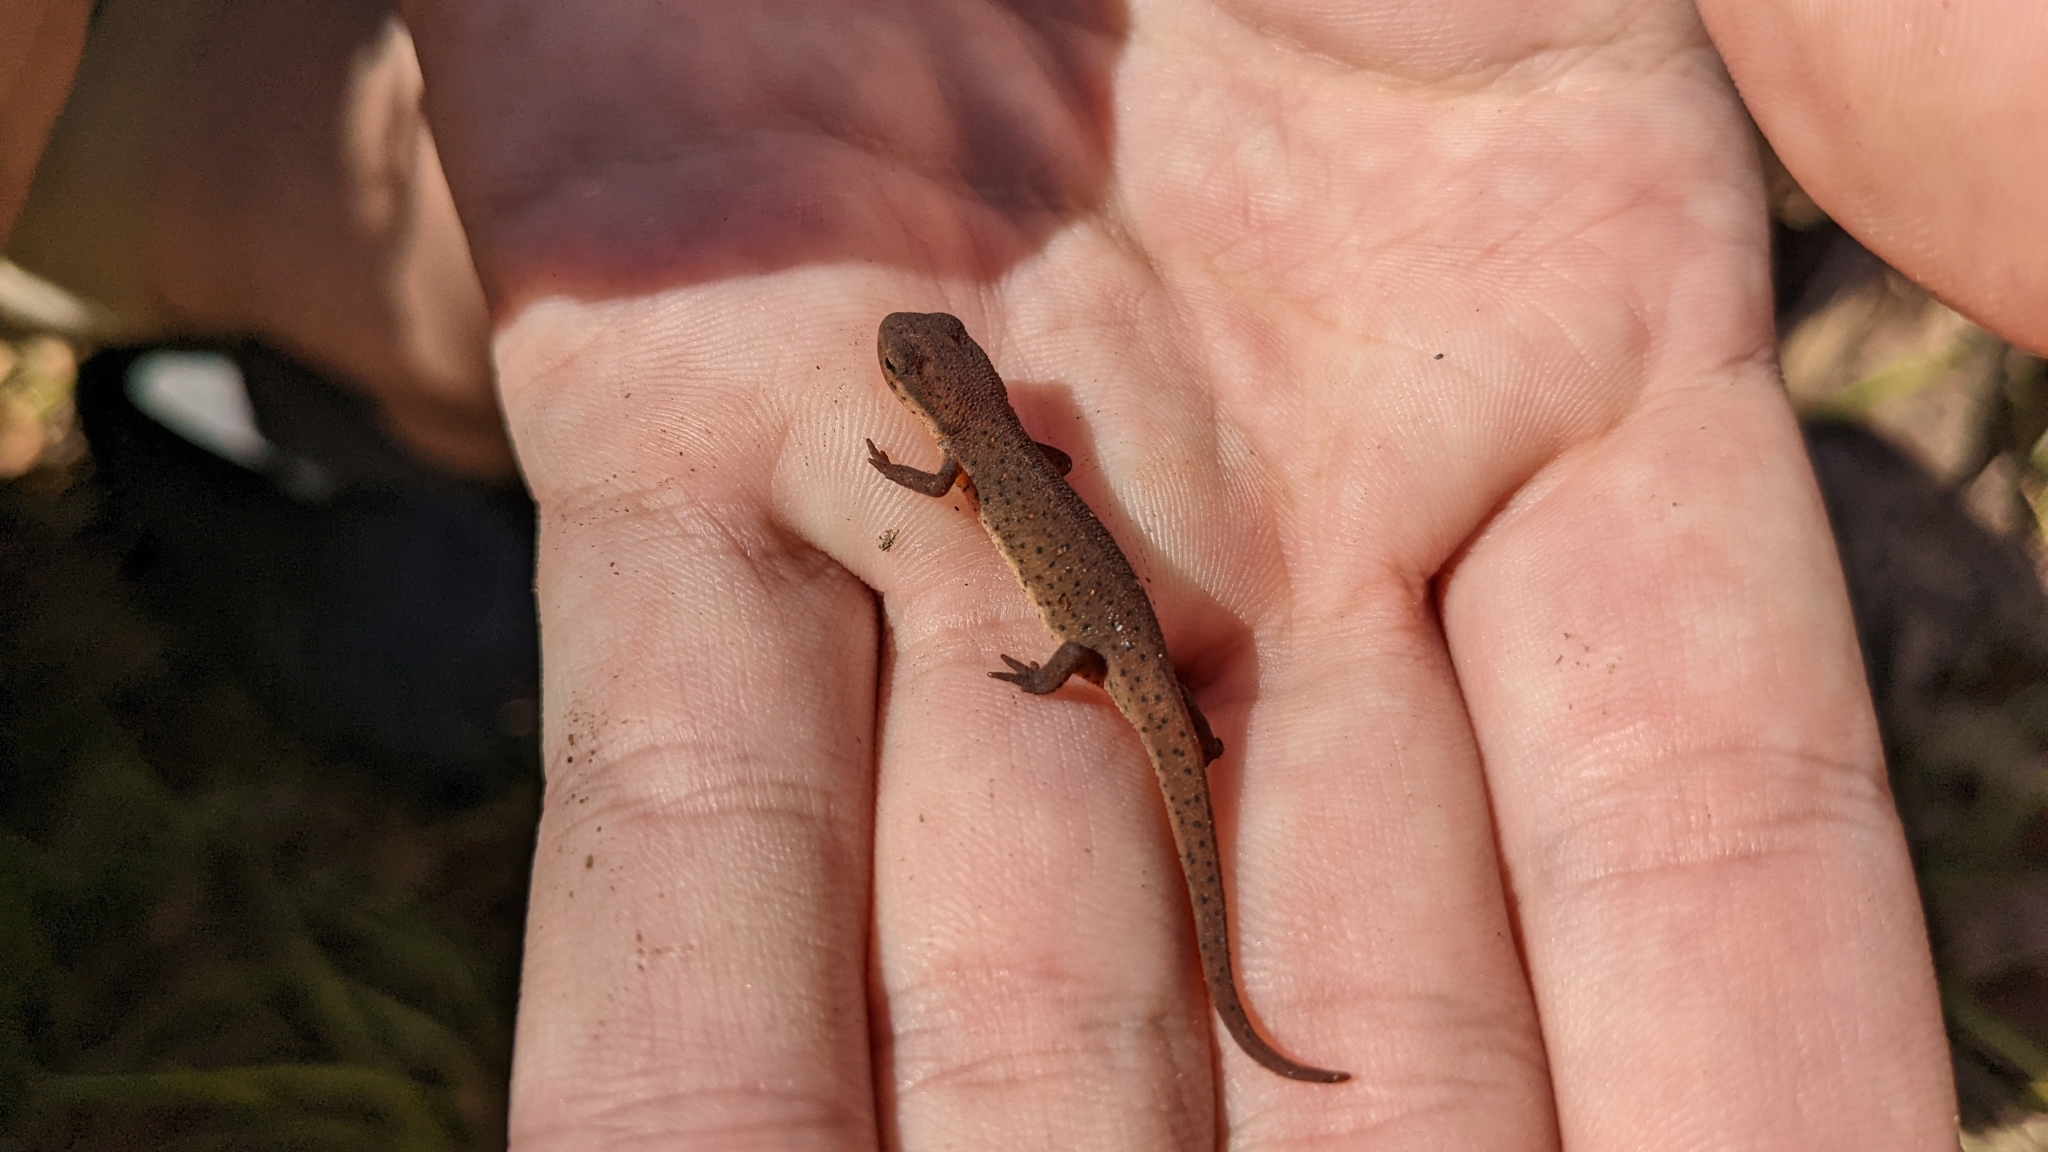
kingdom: Animalia
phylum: Chordata
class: Amphibia
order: Caudata
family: Salamandridae
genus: Notophthalmus
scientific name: Notophthalmus viridescens
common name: Eastern newt
